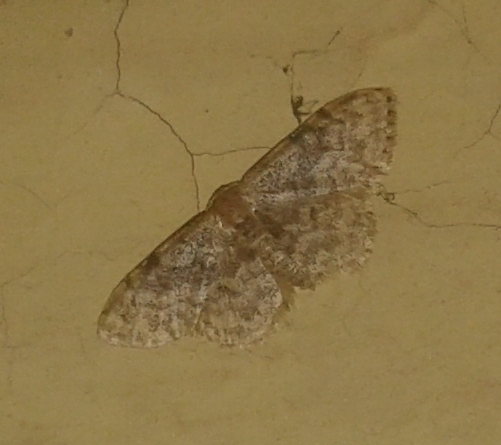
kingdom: Animalia
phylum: Arthropoda
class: Insecta
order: Lepidoptera
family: Geometridae
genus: Idaea
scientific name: Idaea inquinata
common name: Rusty wave
